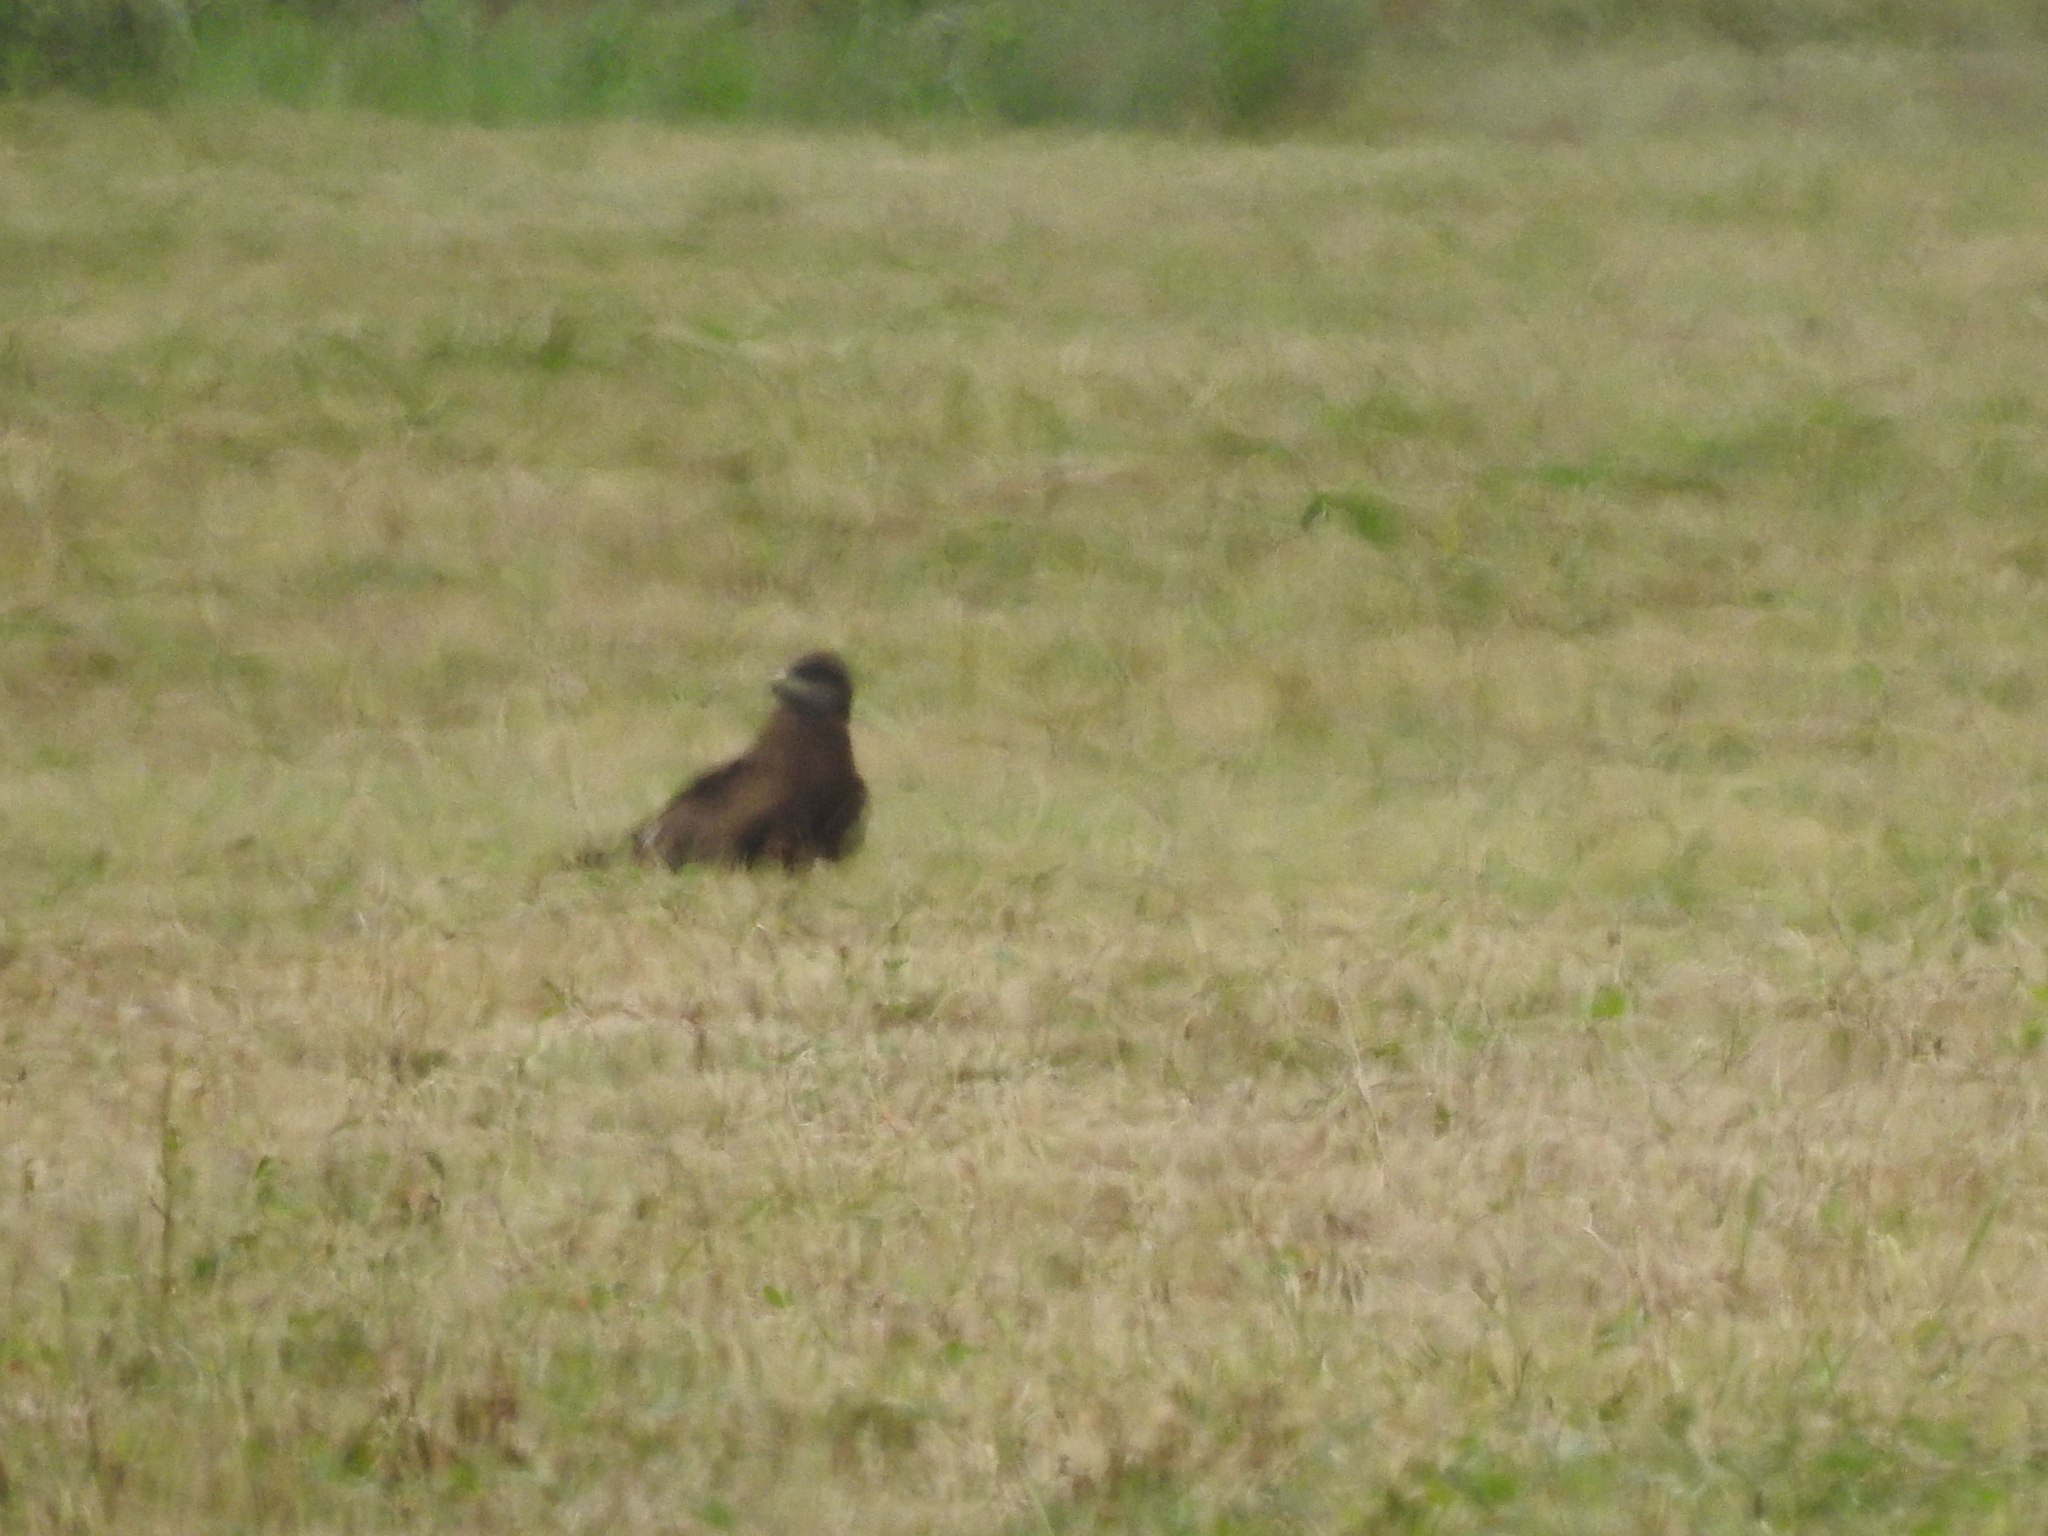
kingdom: Animalia
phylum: Chordata
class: Aves
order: Accipitriformes
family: Accipitridae
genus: Milvus
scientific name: Milvus migrans
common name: Black kite
